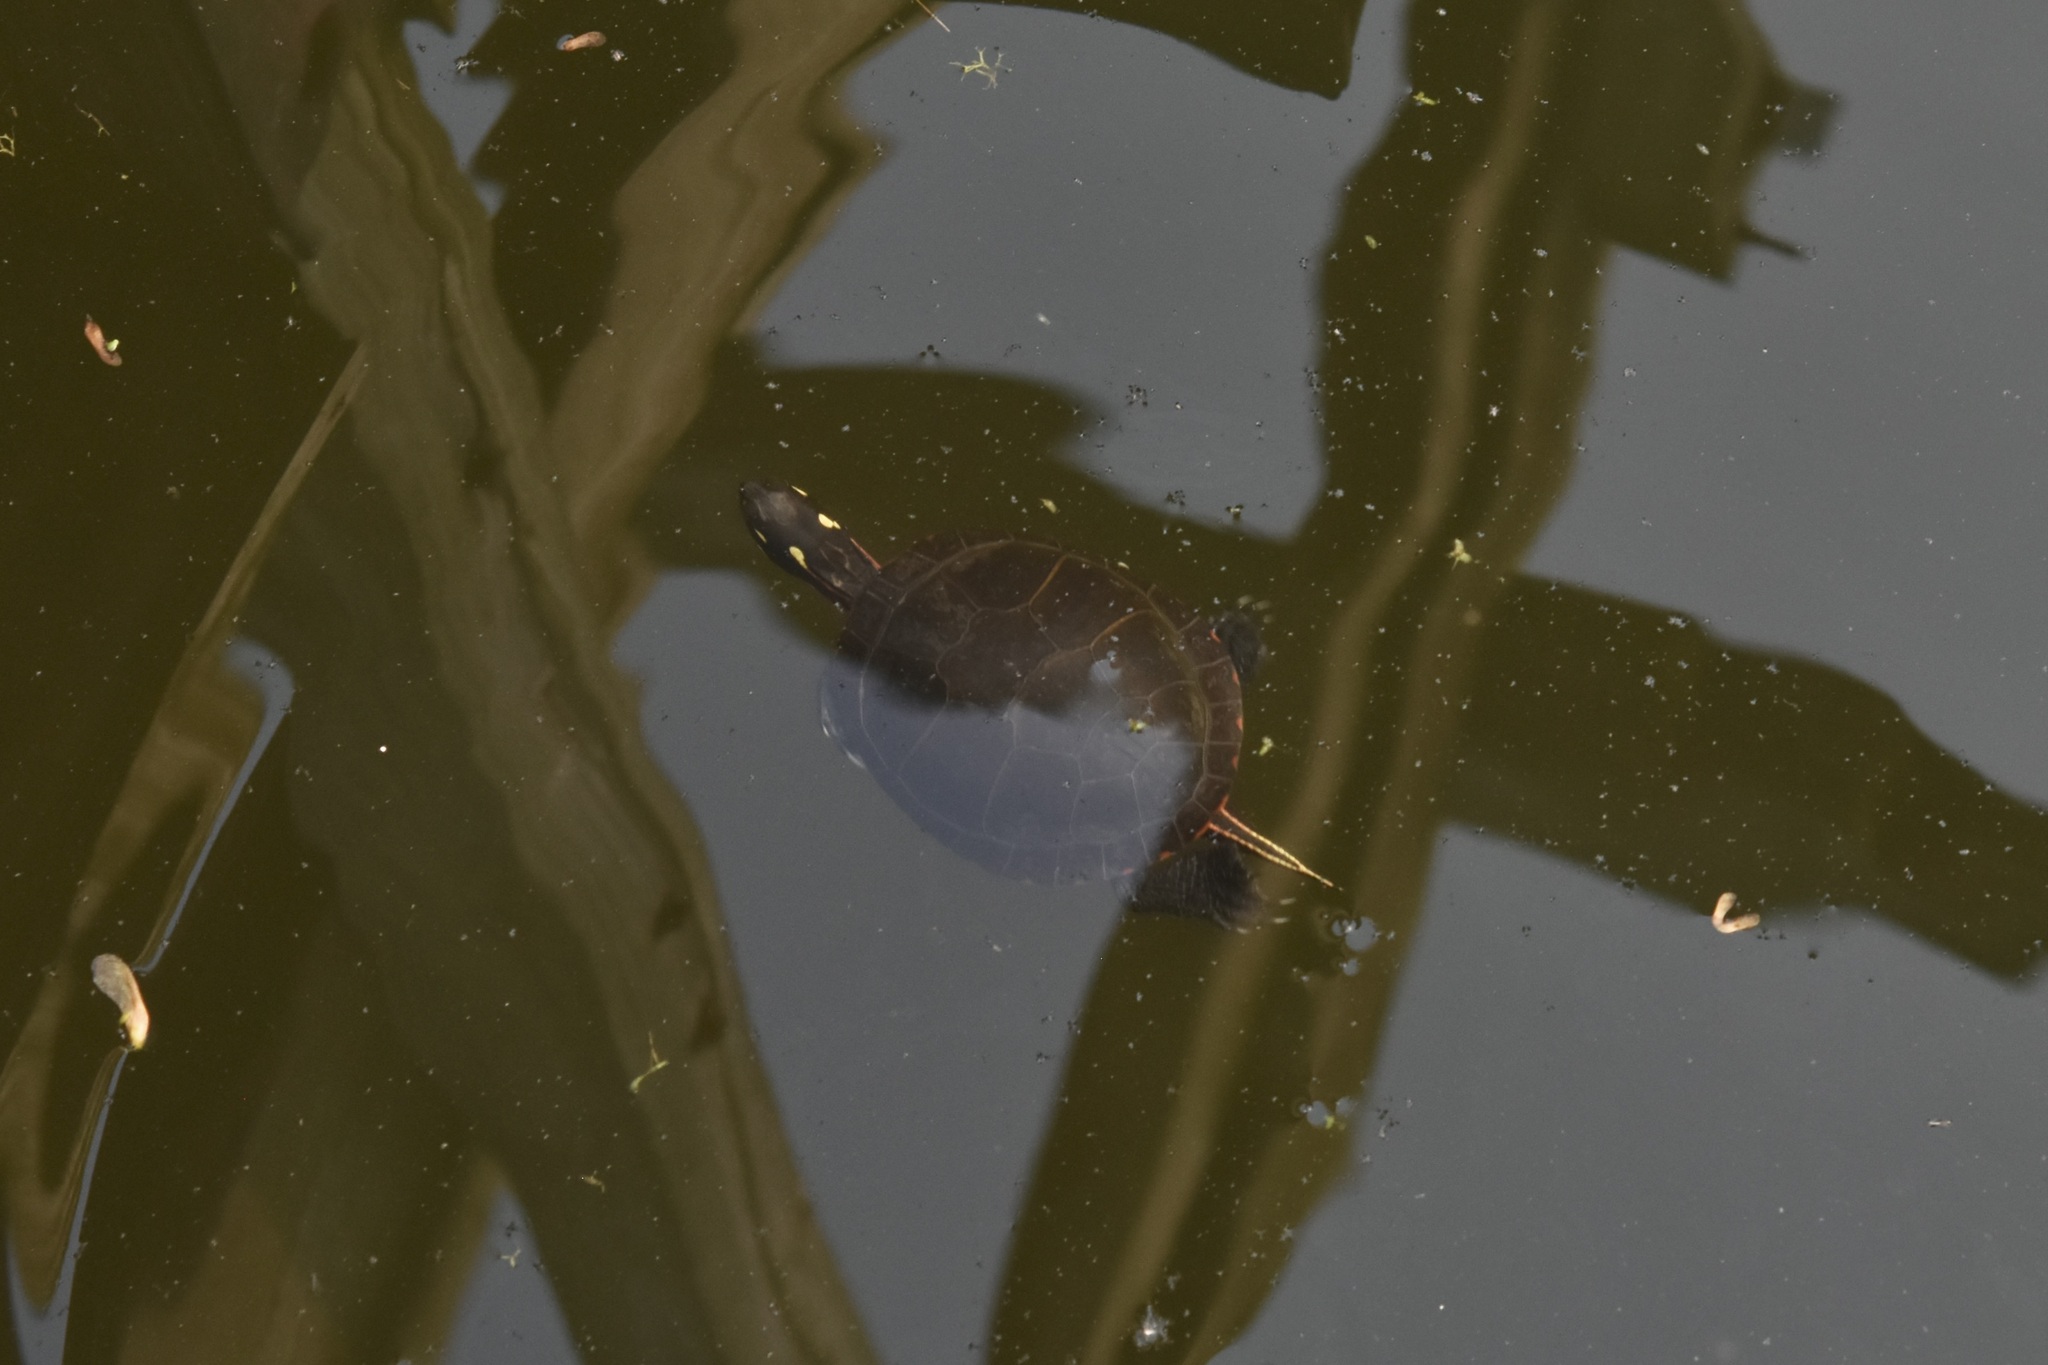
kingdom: Animalia
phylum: Chordata
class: Testudines
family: Emydidae
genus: Chrysemys
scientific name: Chrysemys picta
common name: Painted turtle
